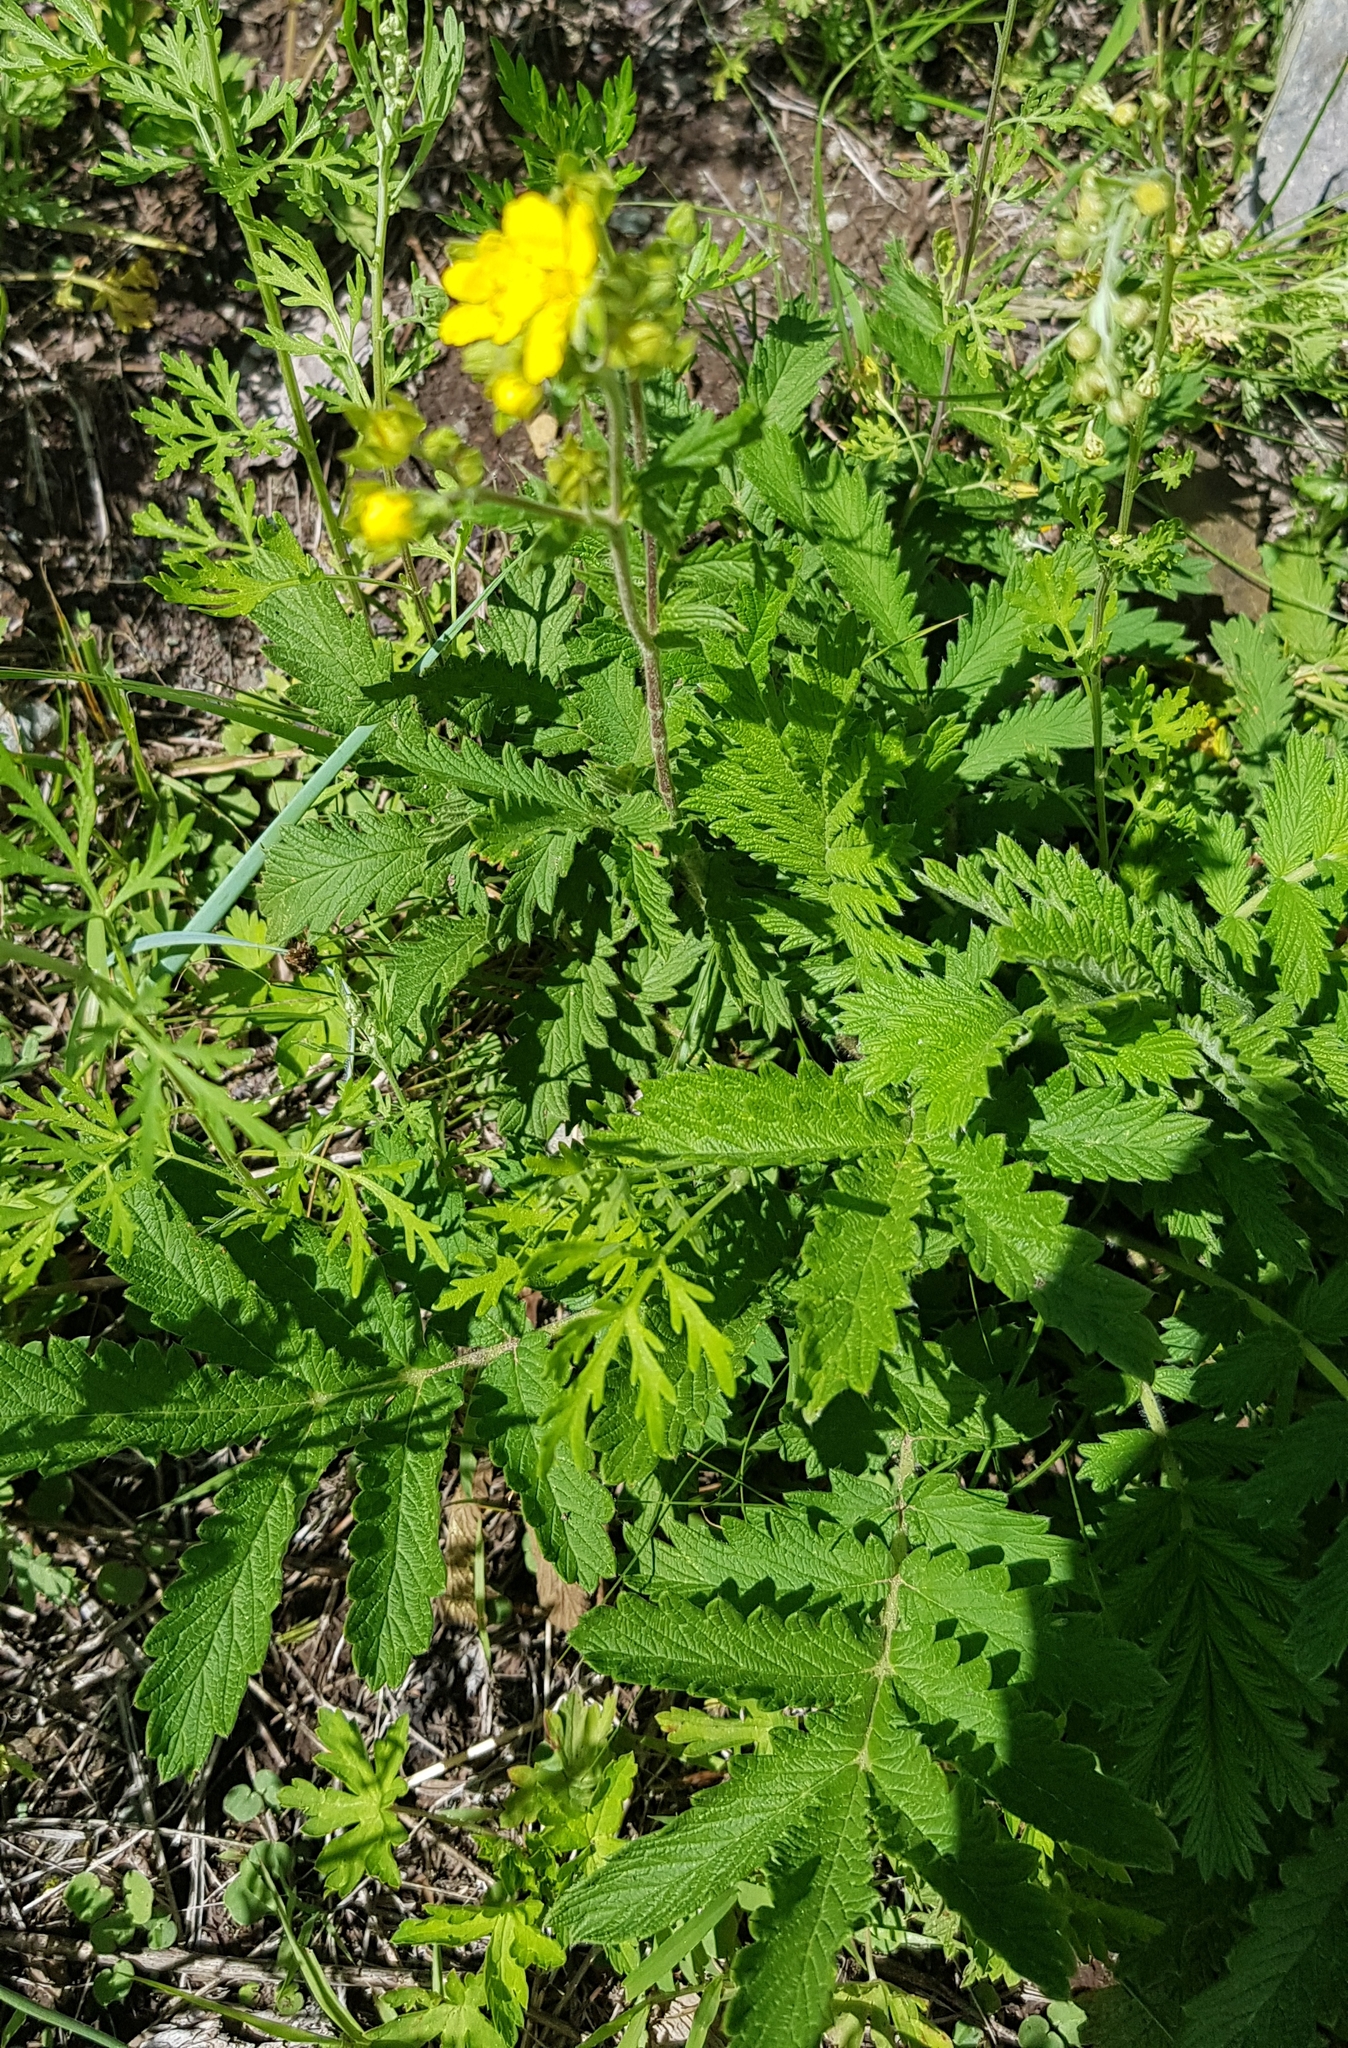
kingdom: Plantae
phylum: Tracheophyta
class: Magnoliopsida
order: Rosales
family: Rosaceae
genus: Potentilla
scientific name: Potentilla tanacetifolia
